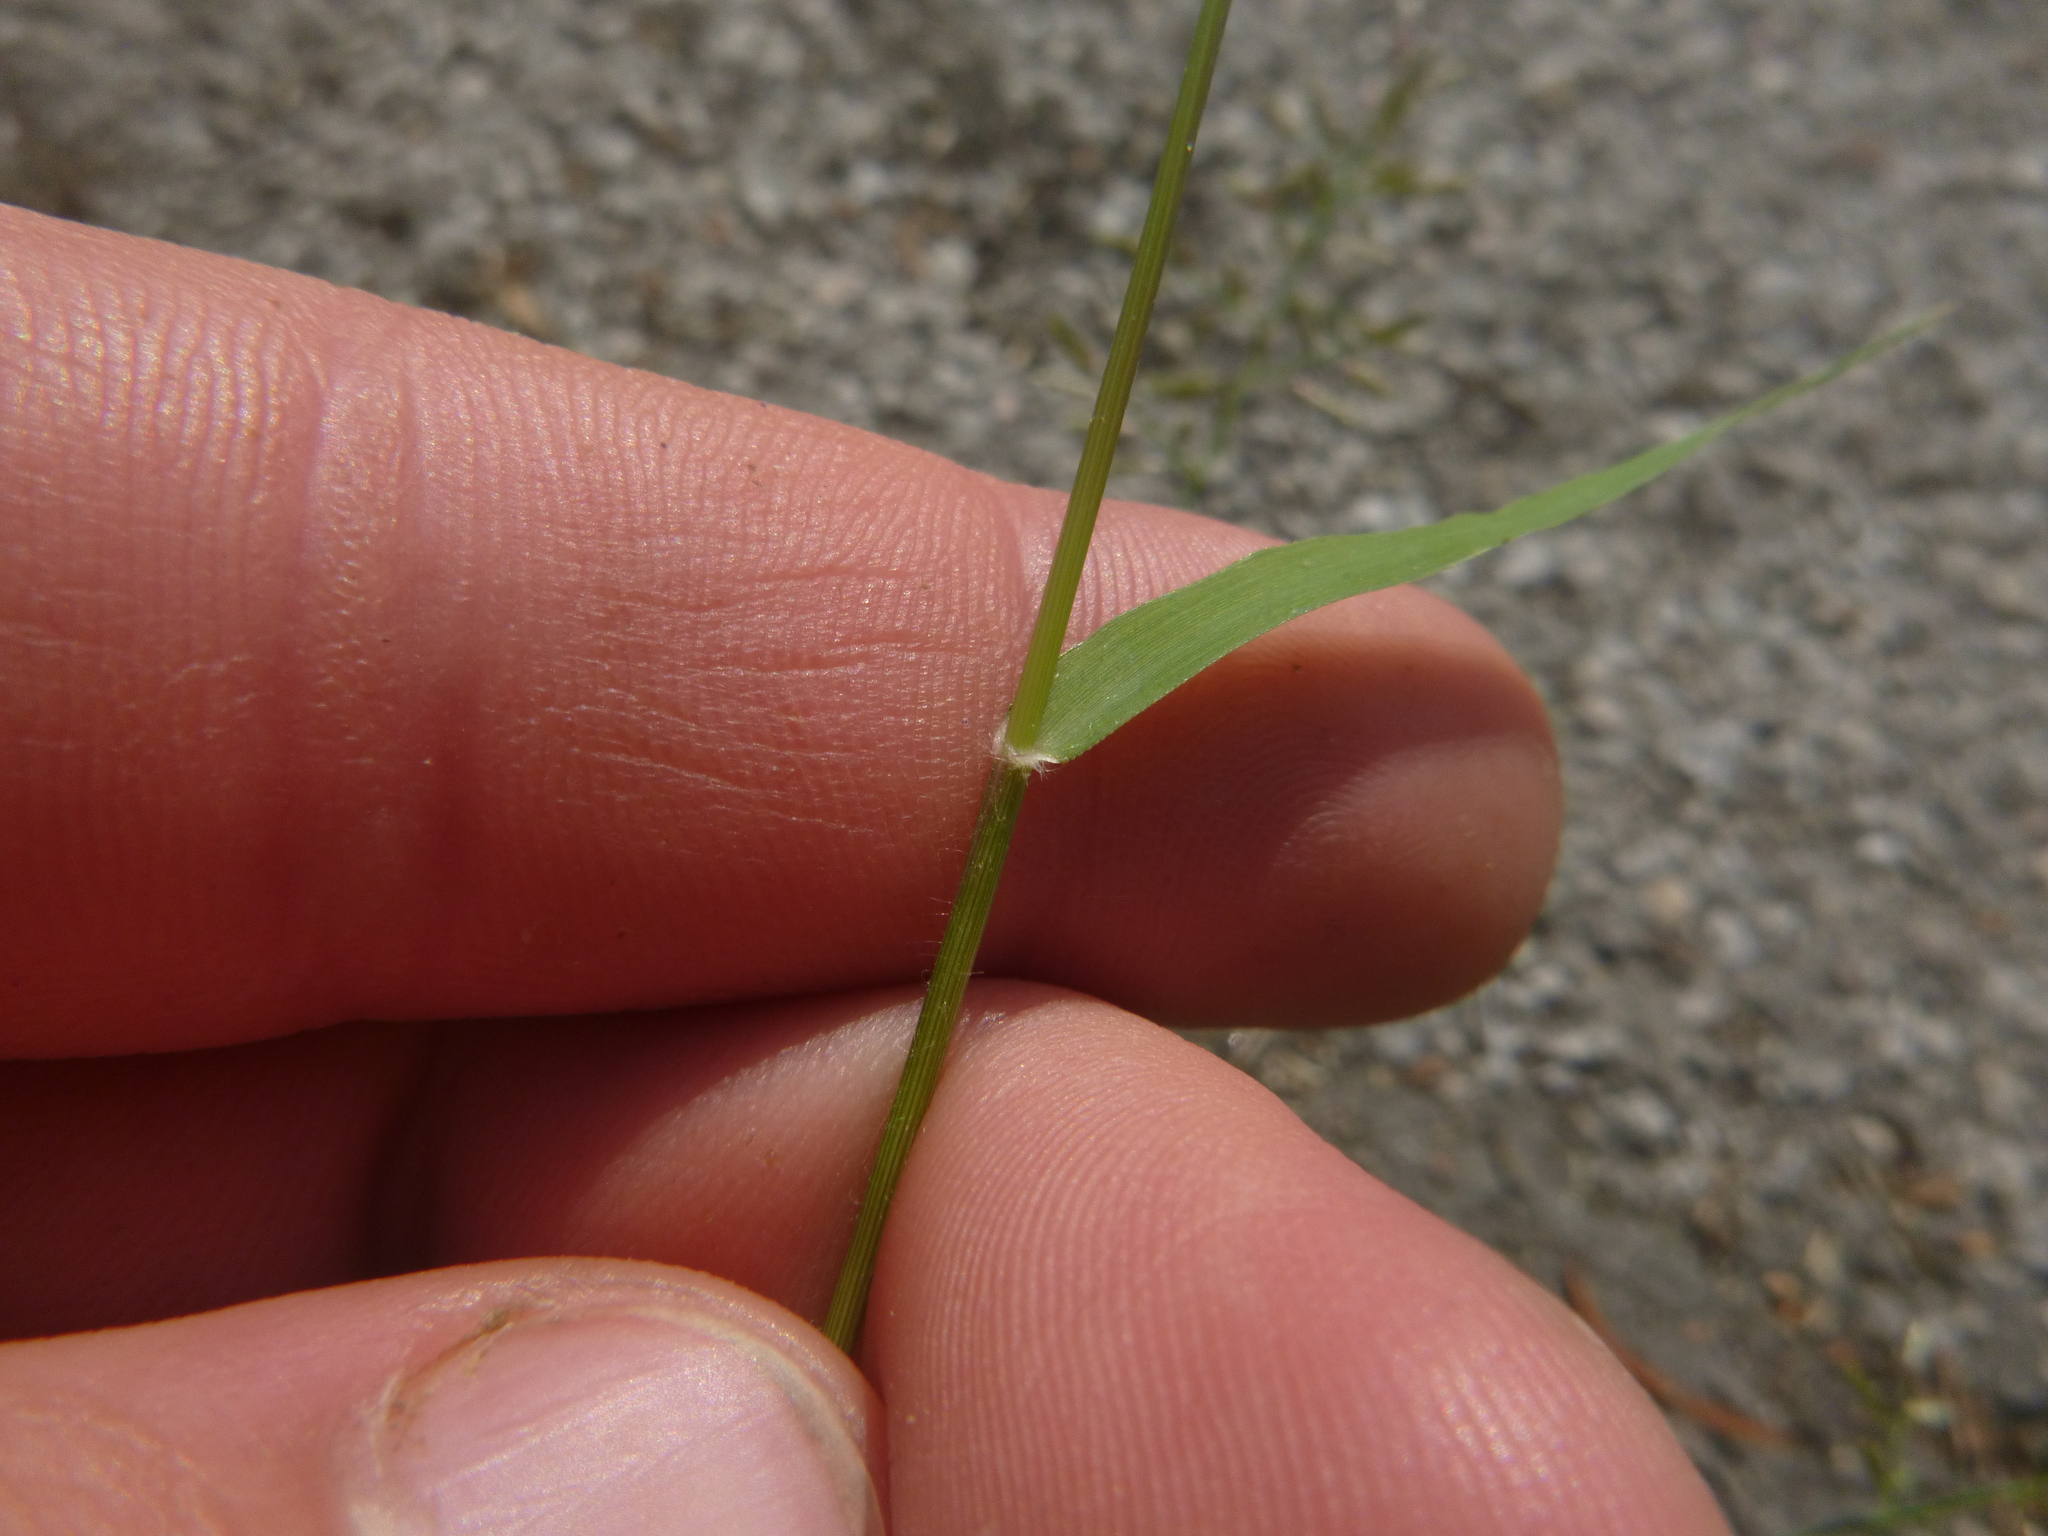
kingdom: Plantae
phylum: Tracheophyta
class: Liliopsida
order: Poales
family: Poaceae
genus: Eragrostis
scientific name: Eragrostis minor
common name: Small love-grass
